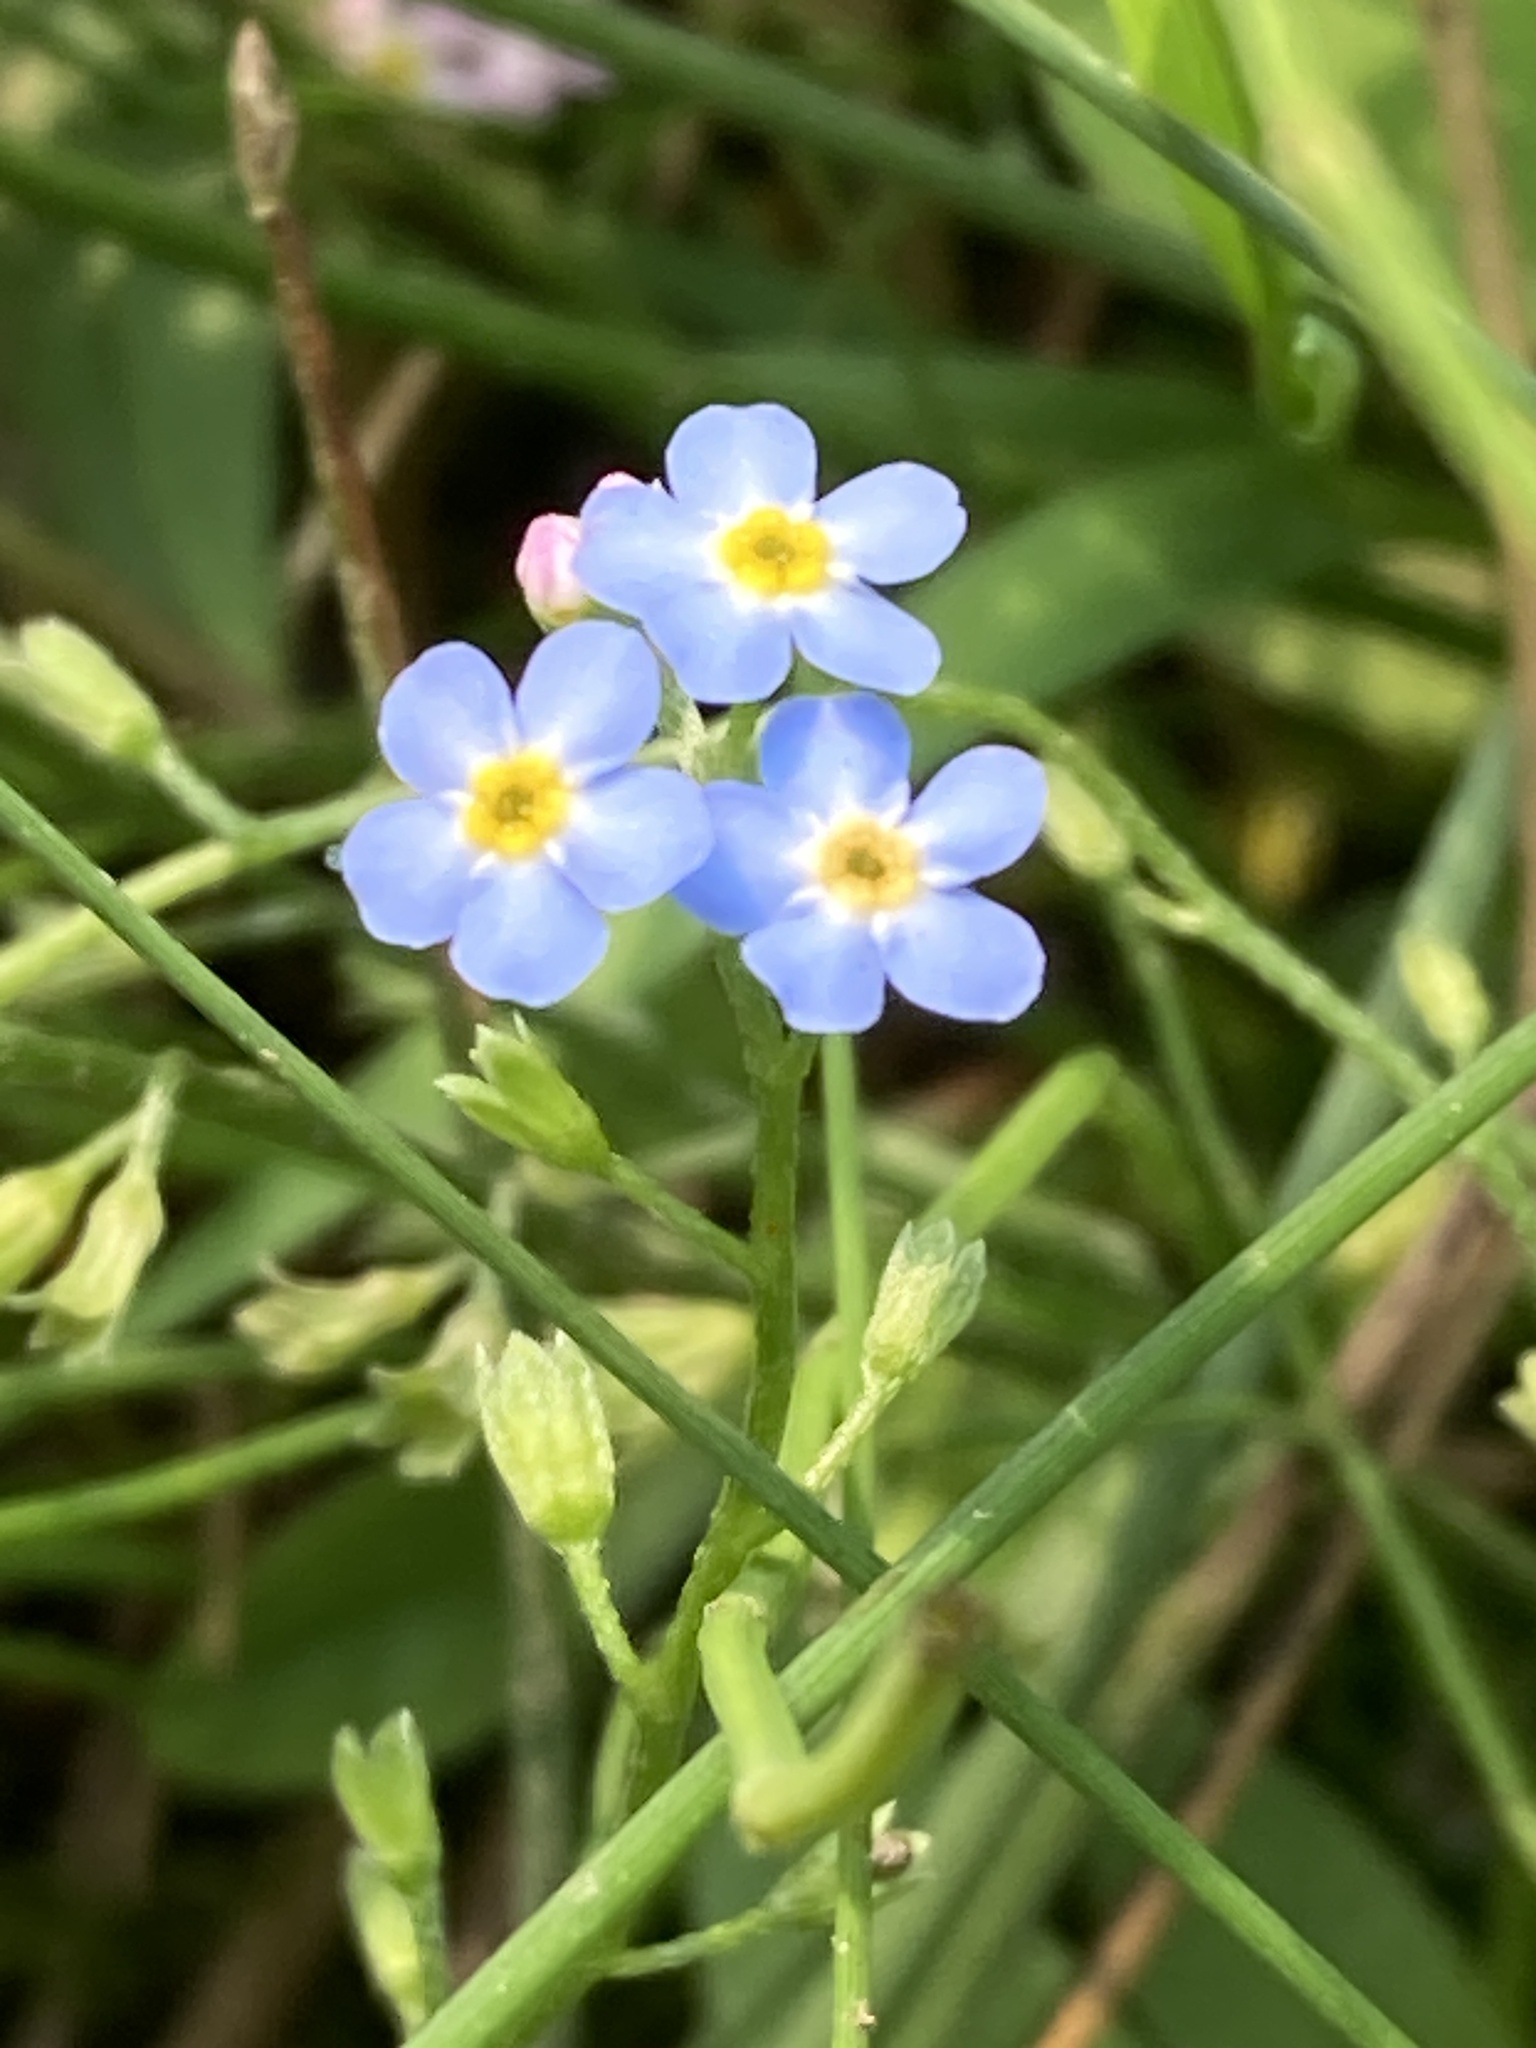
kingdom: Plantae
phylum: Tracheophyta
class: Magnoliopsida
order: Boraginales
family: Boraginaceae
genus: Myosotis
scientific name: Myosotis scorpioides
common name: Water forget-me-not
